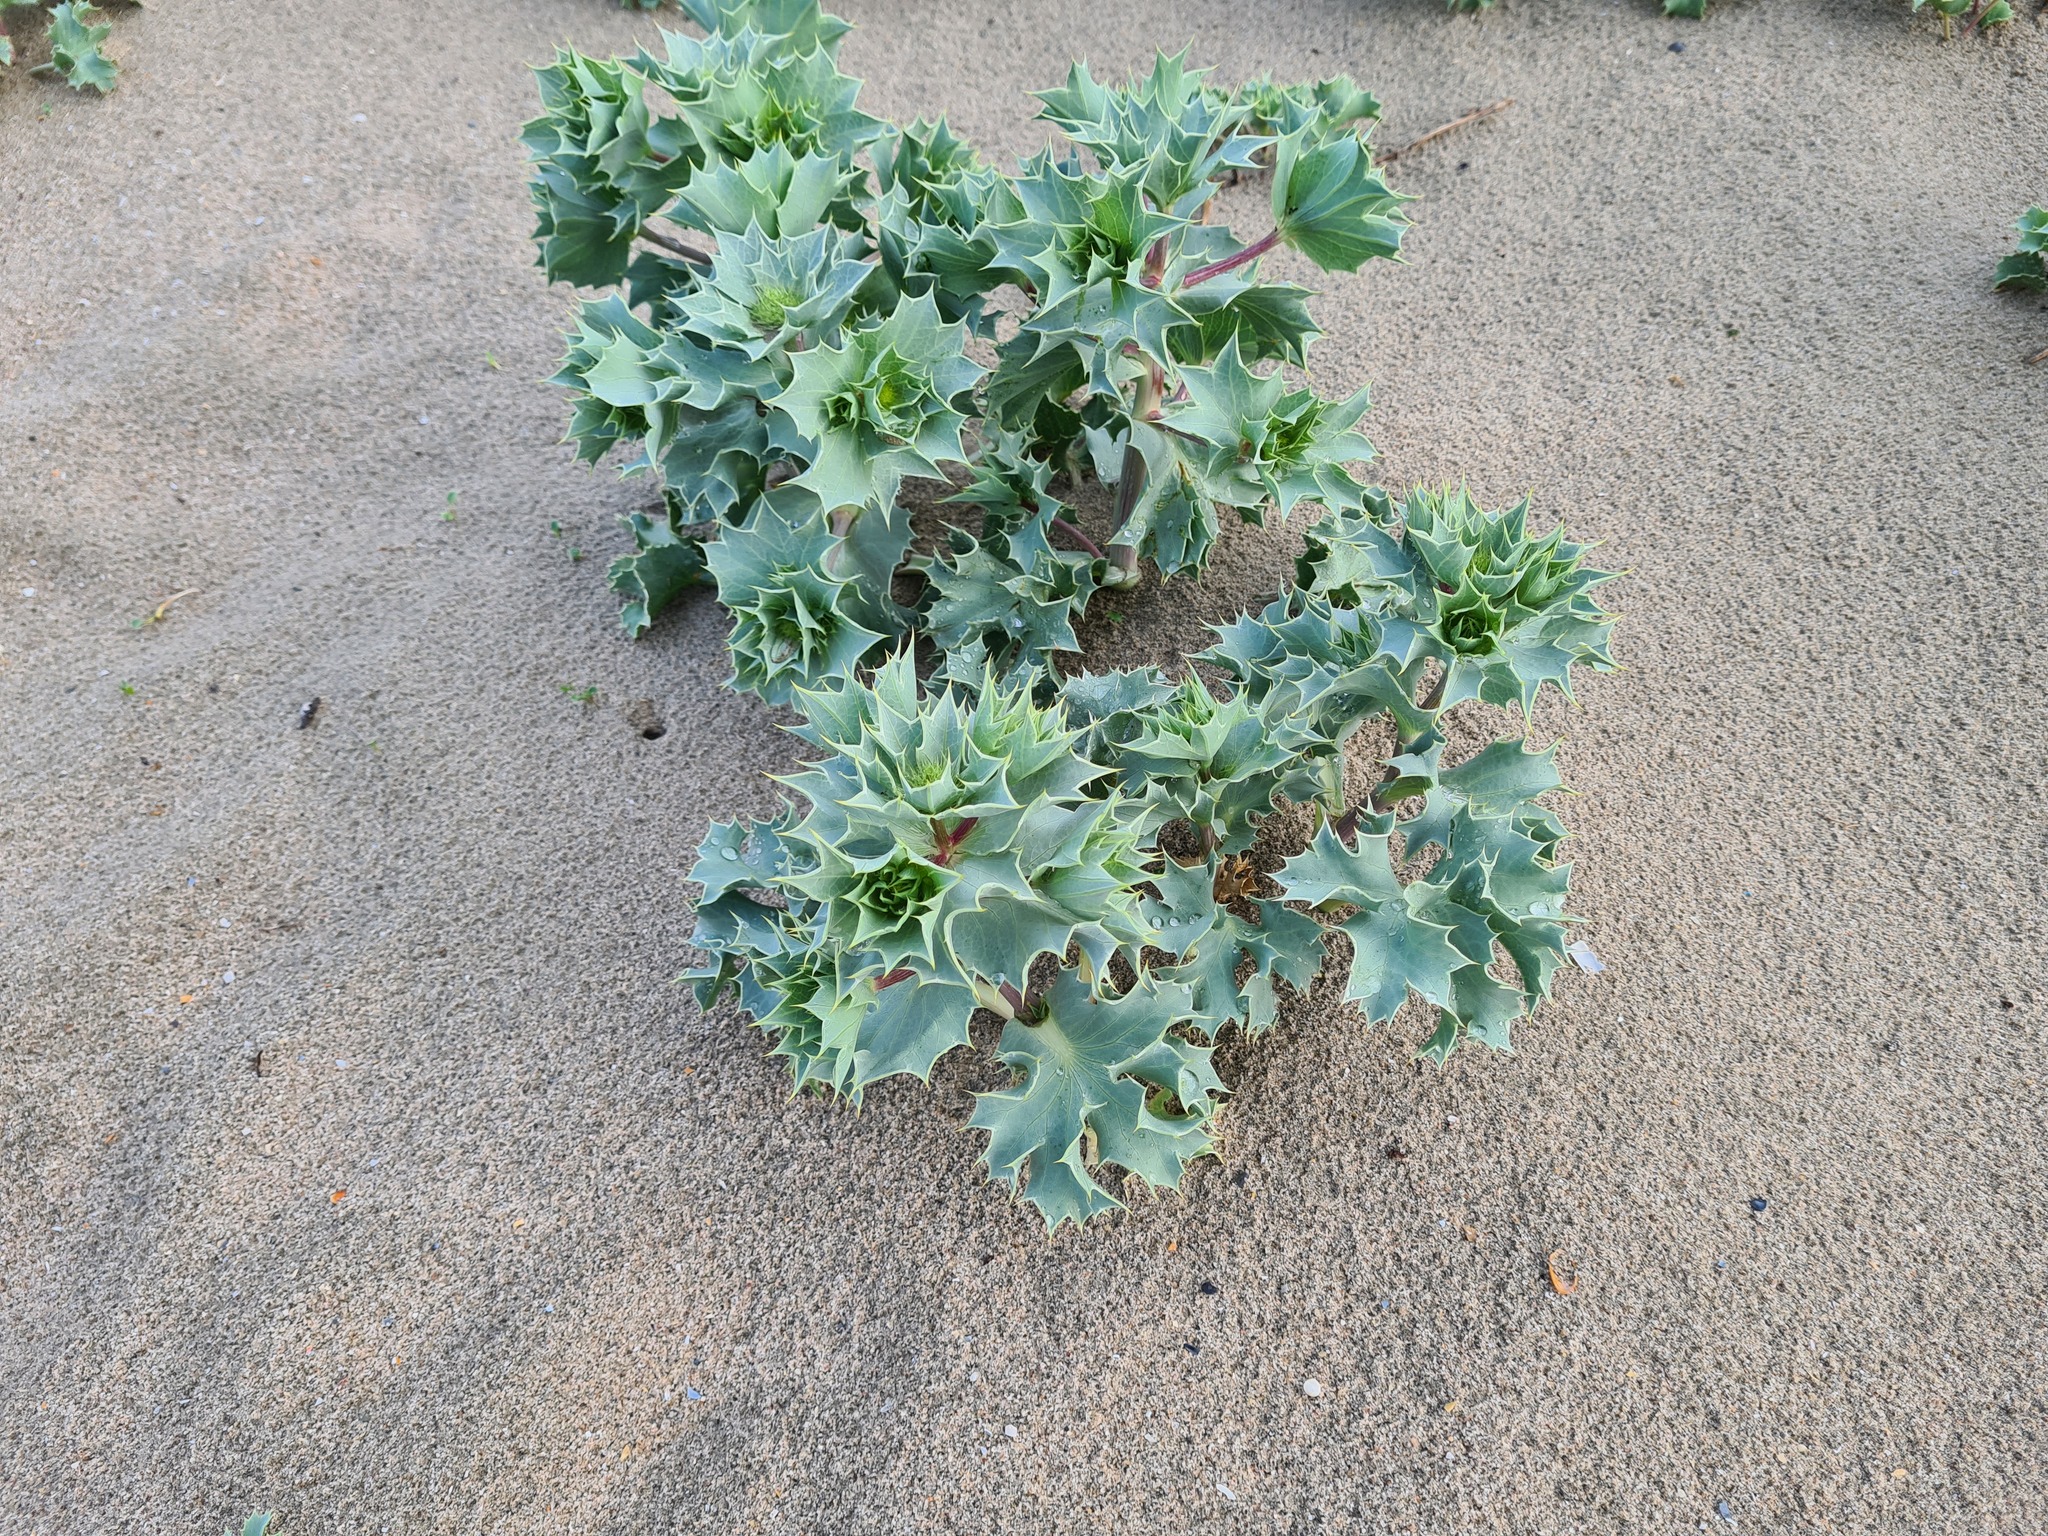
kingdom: Plantae
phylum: Tracheophyta
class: Magnoliopsida
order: Apiales
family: Apiaceae
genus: Eryngium
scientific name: Eryngium maritimum
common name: Sea-holly
